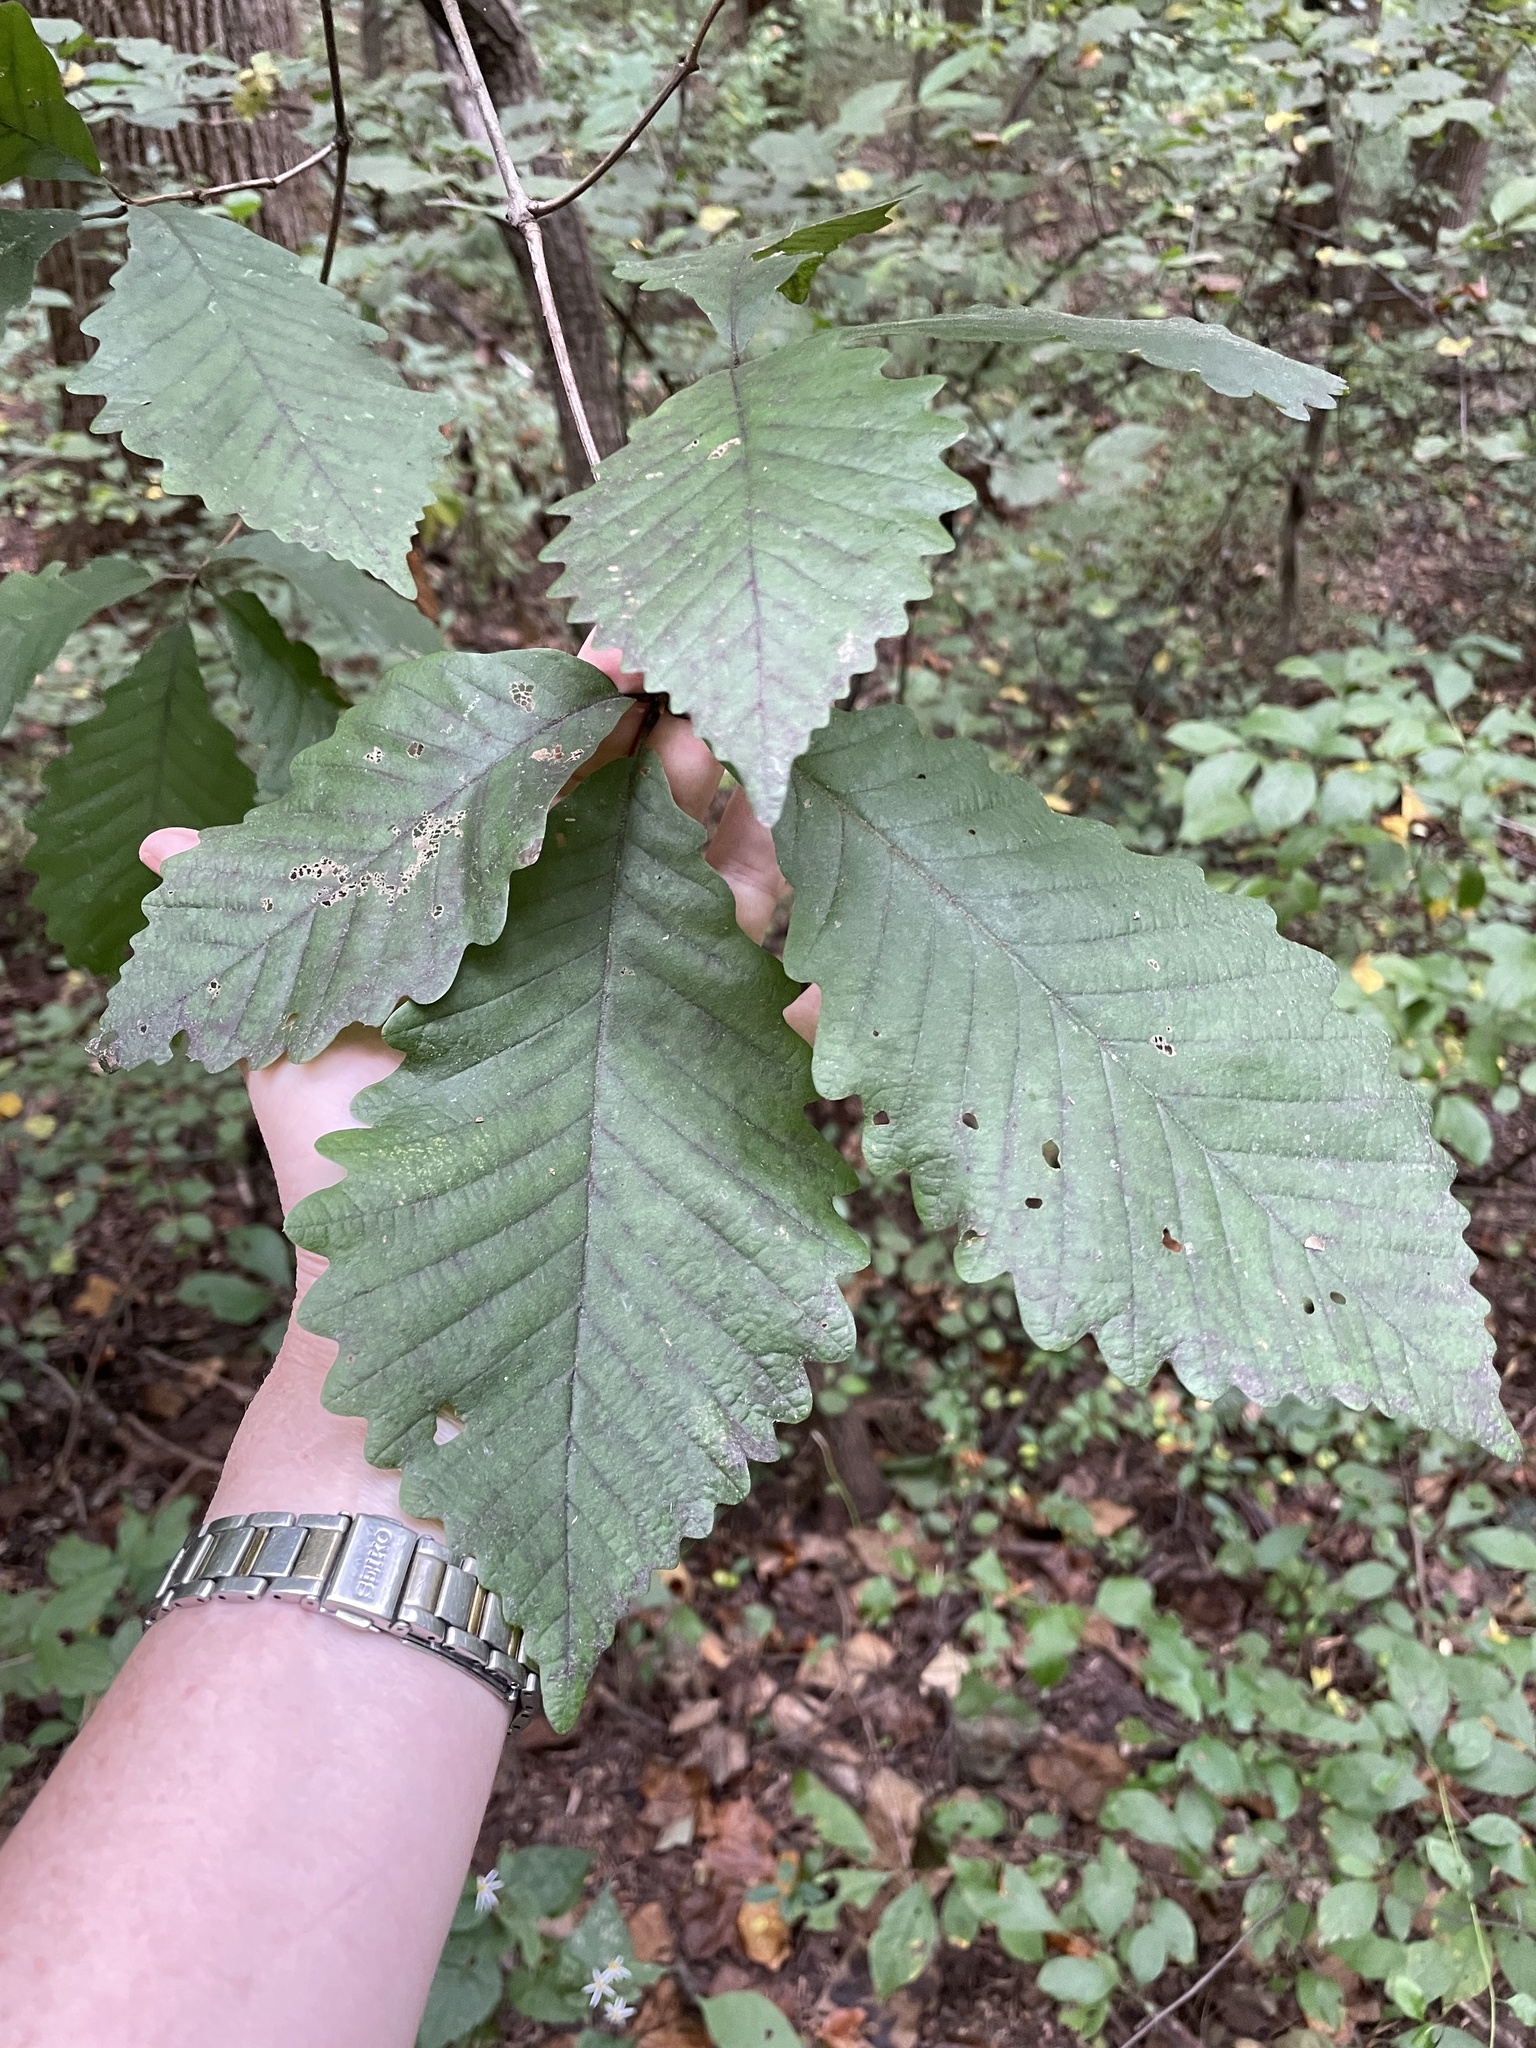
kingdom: Plantae
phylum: Tracheophyta
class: Magnoliopsida
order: Fagales
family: Fagaceae
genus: Quercus
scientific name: Quercus montana
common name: Chestnut oak
